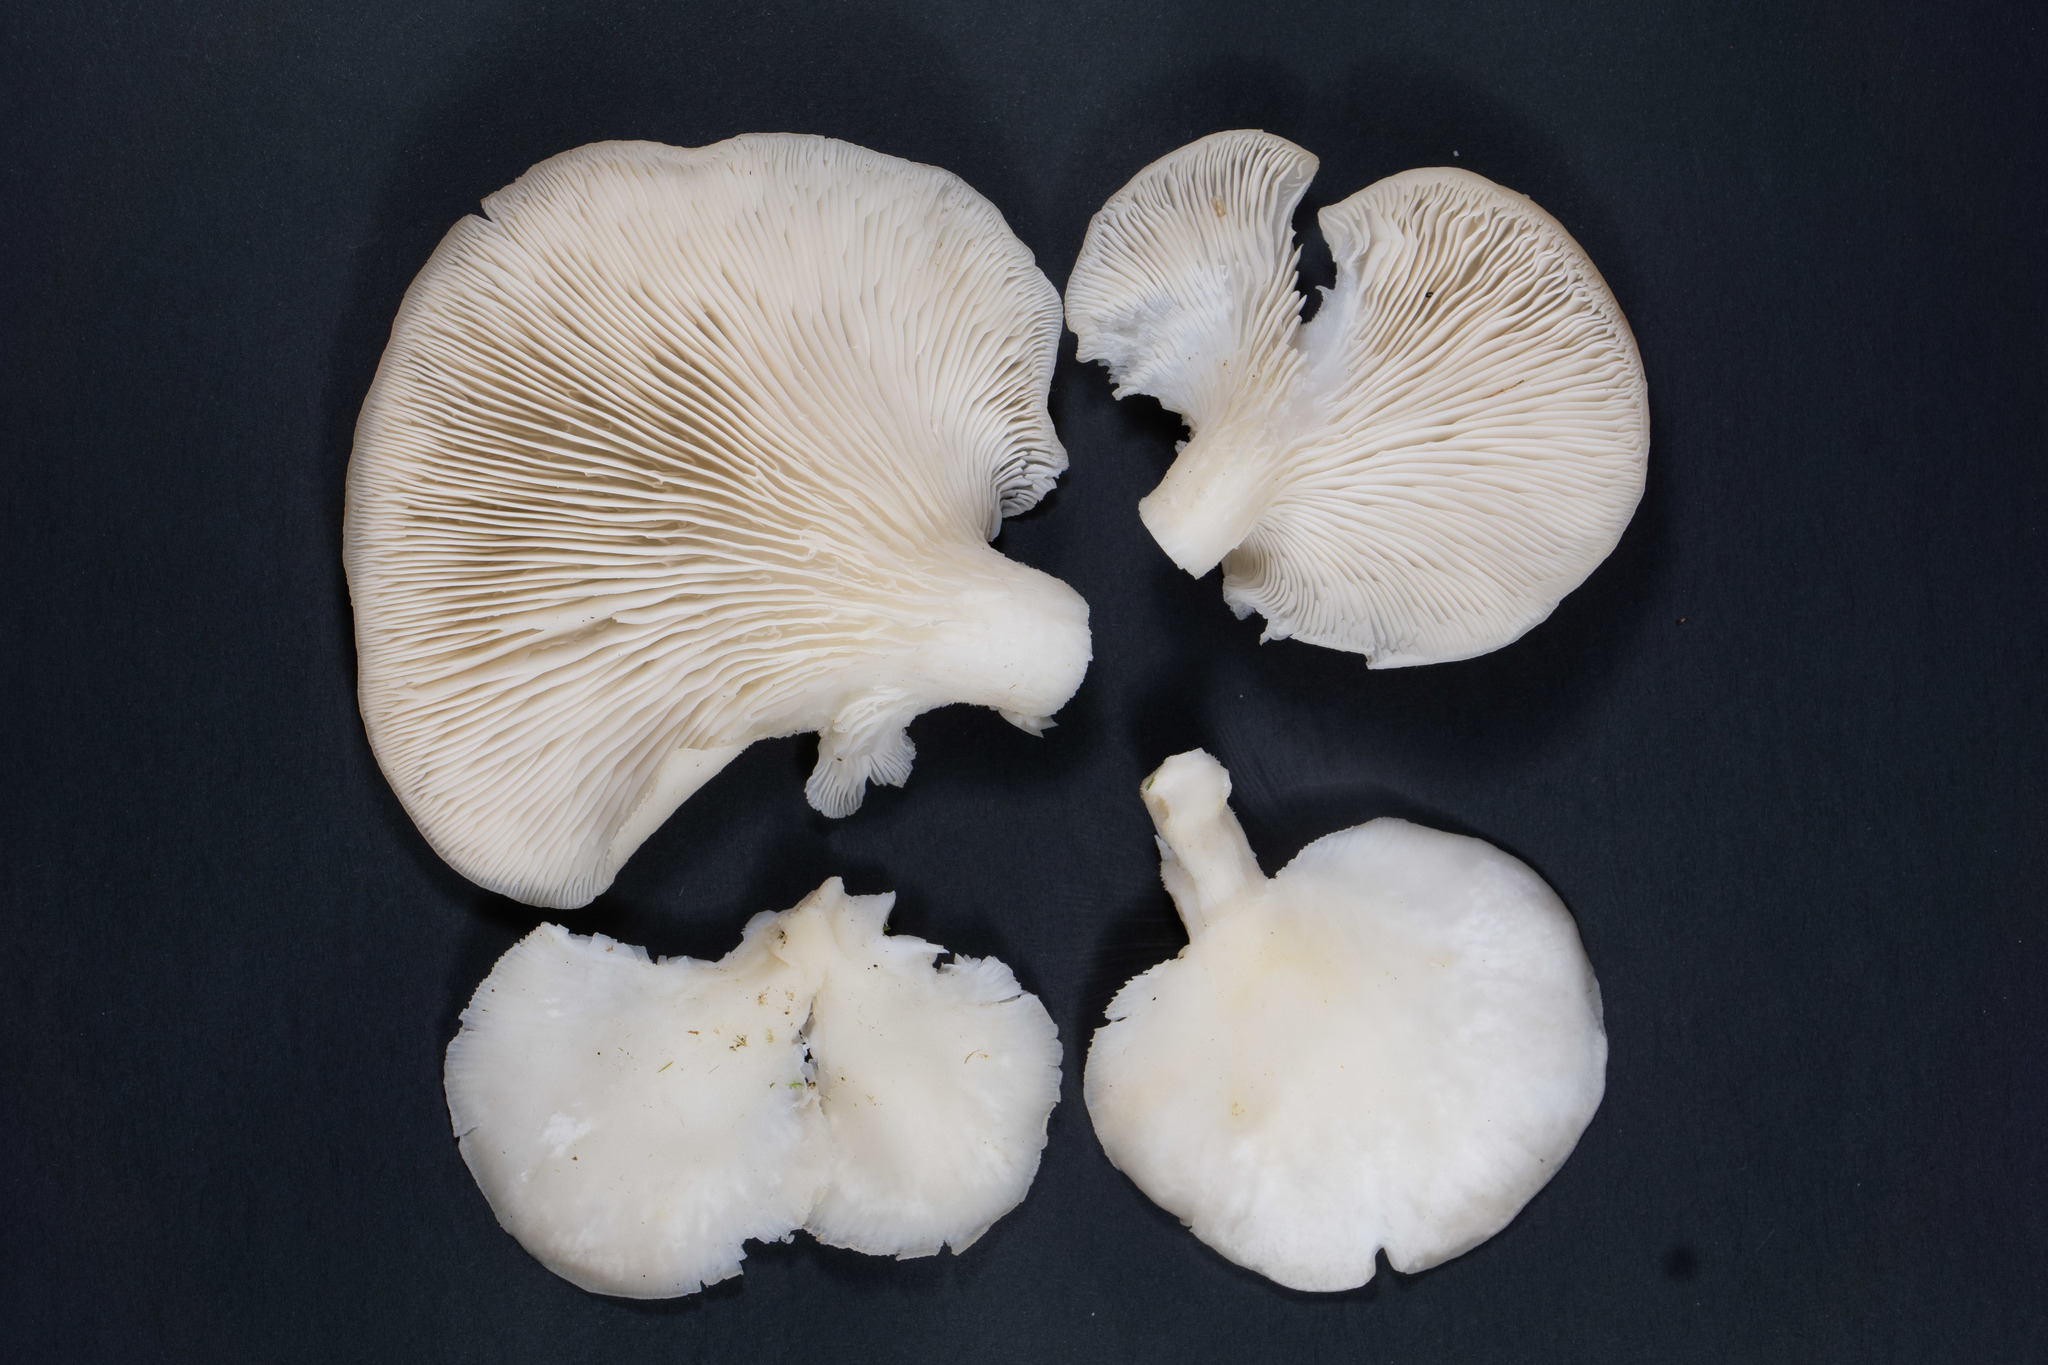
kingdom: Fungi
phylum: Basidiomycota
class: Agaricomycetes
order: Agaricales
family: Pleurotaceae
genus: Pleurotus
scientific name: Pleurotus pulmonarius
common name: Pale oyster
